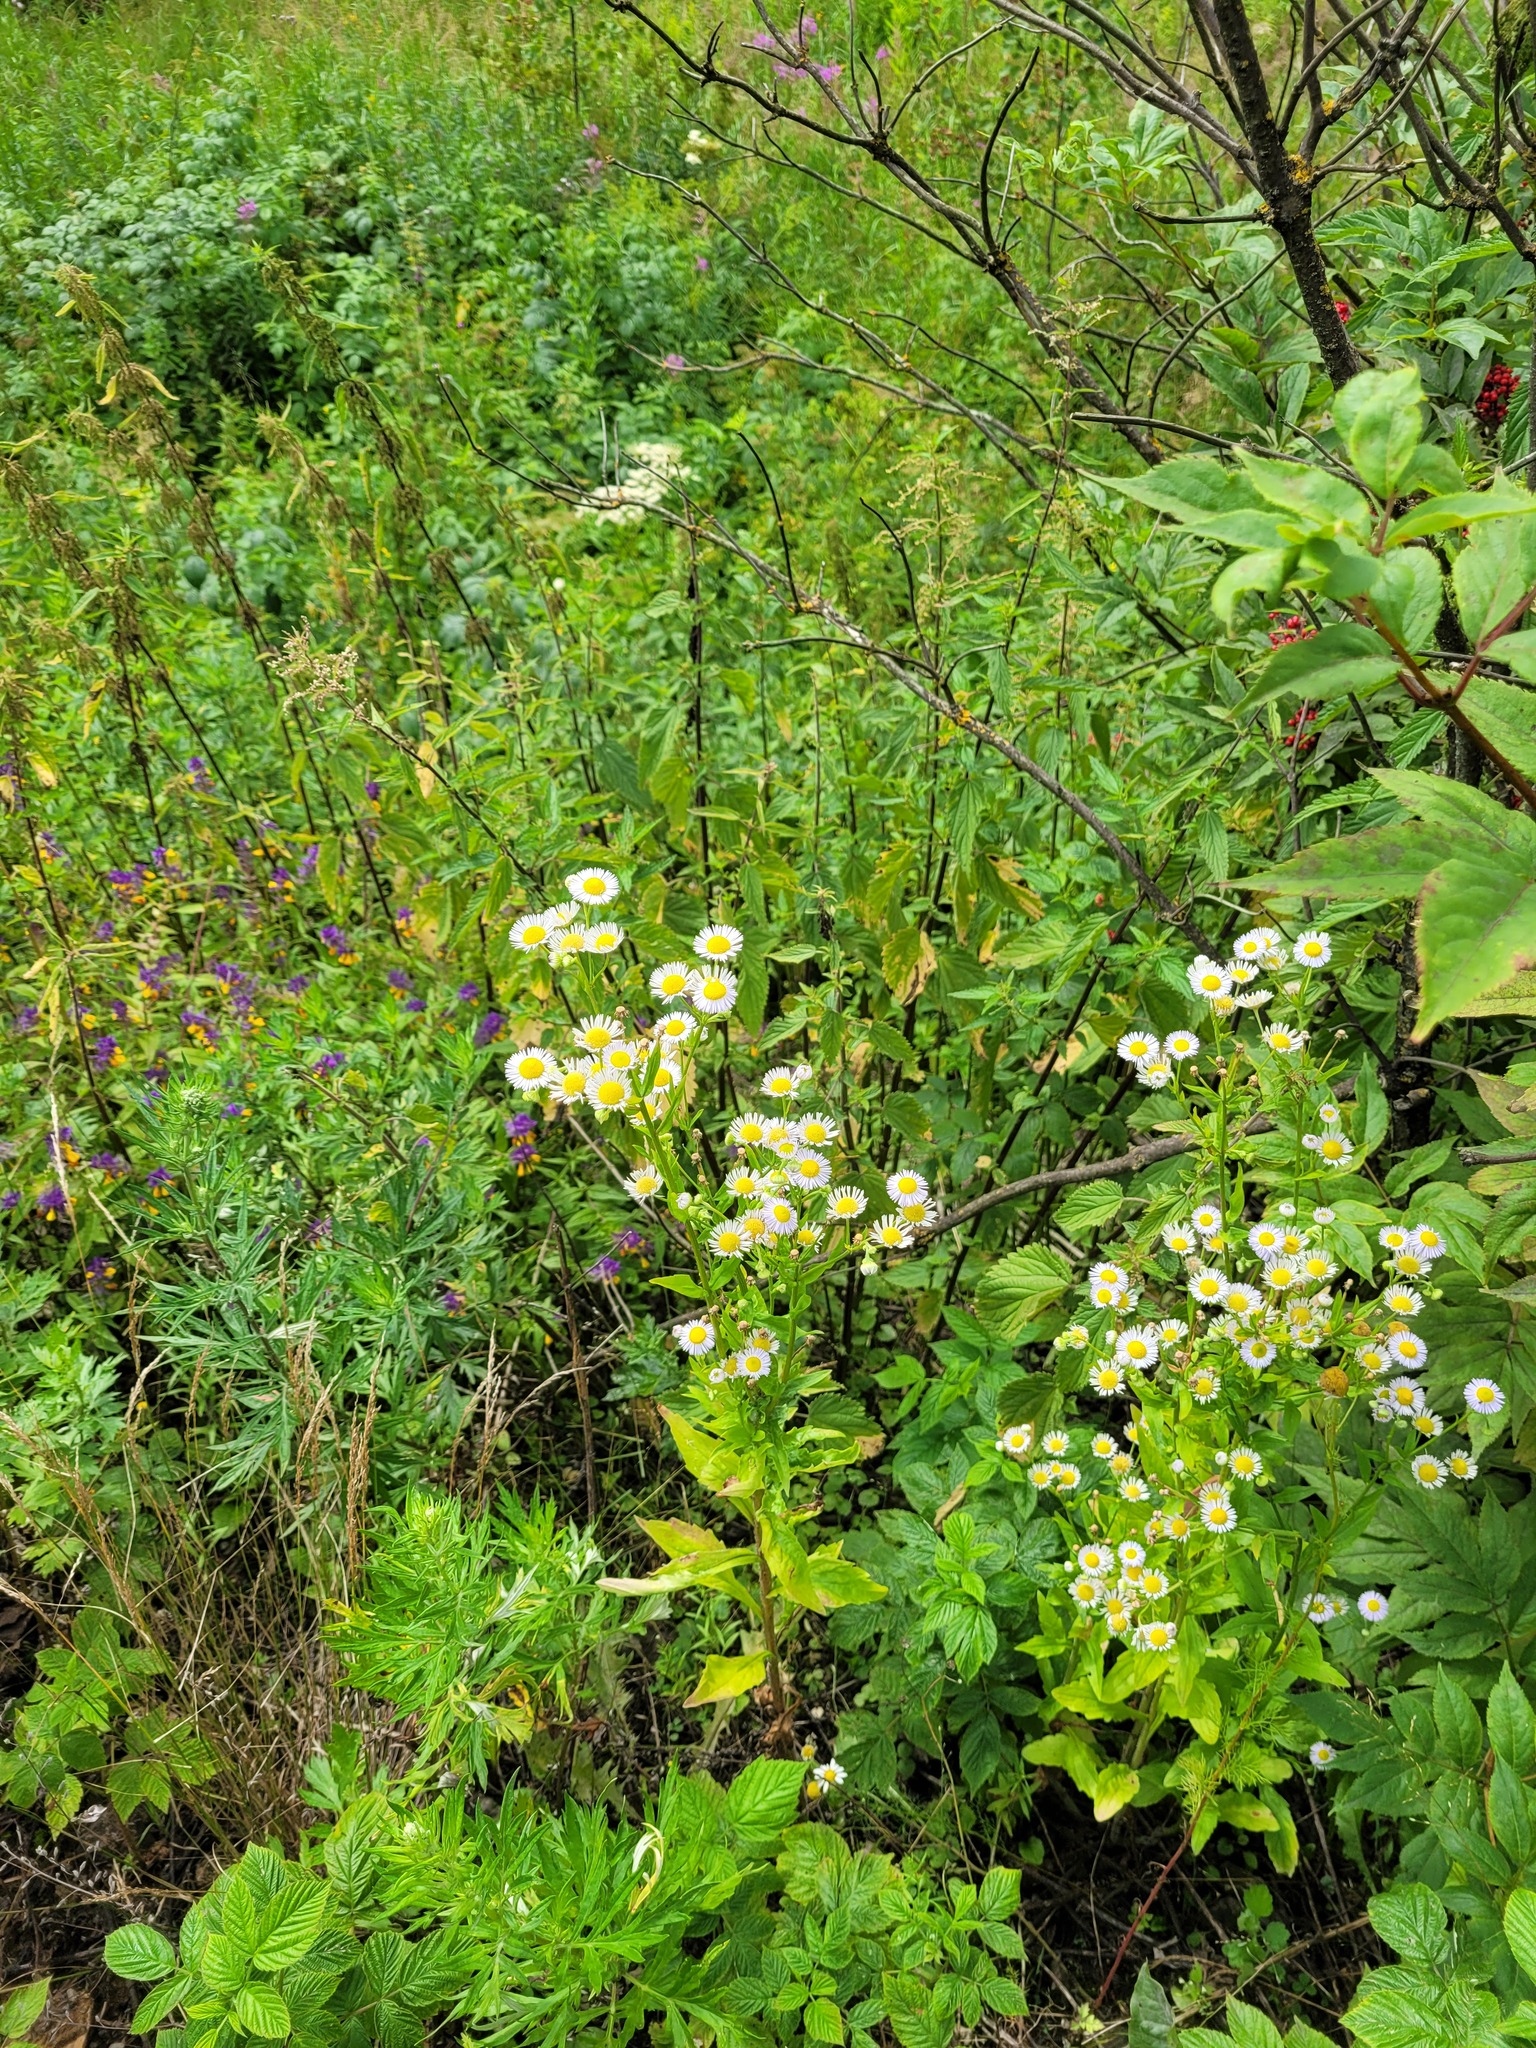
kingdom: Plantae
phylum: Tracheophyta
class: Magnoliopsida
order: Asterales
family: Asteraceae
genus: Erigeron
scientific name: Erigeron annuus
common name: Tall fleabane
